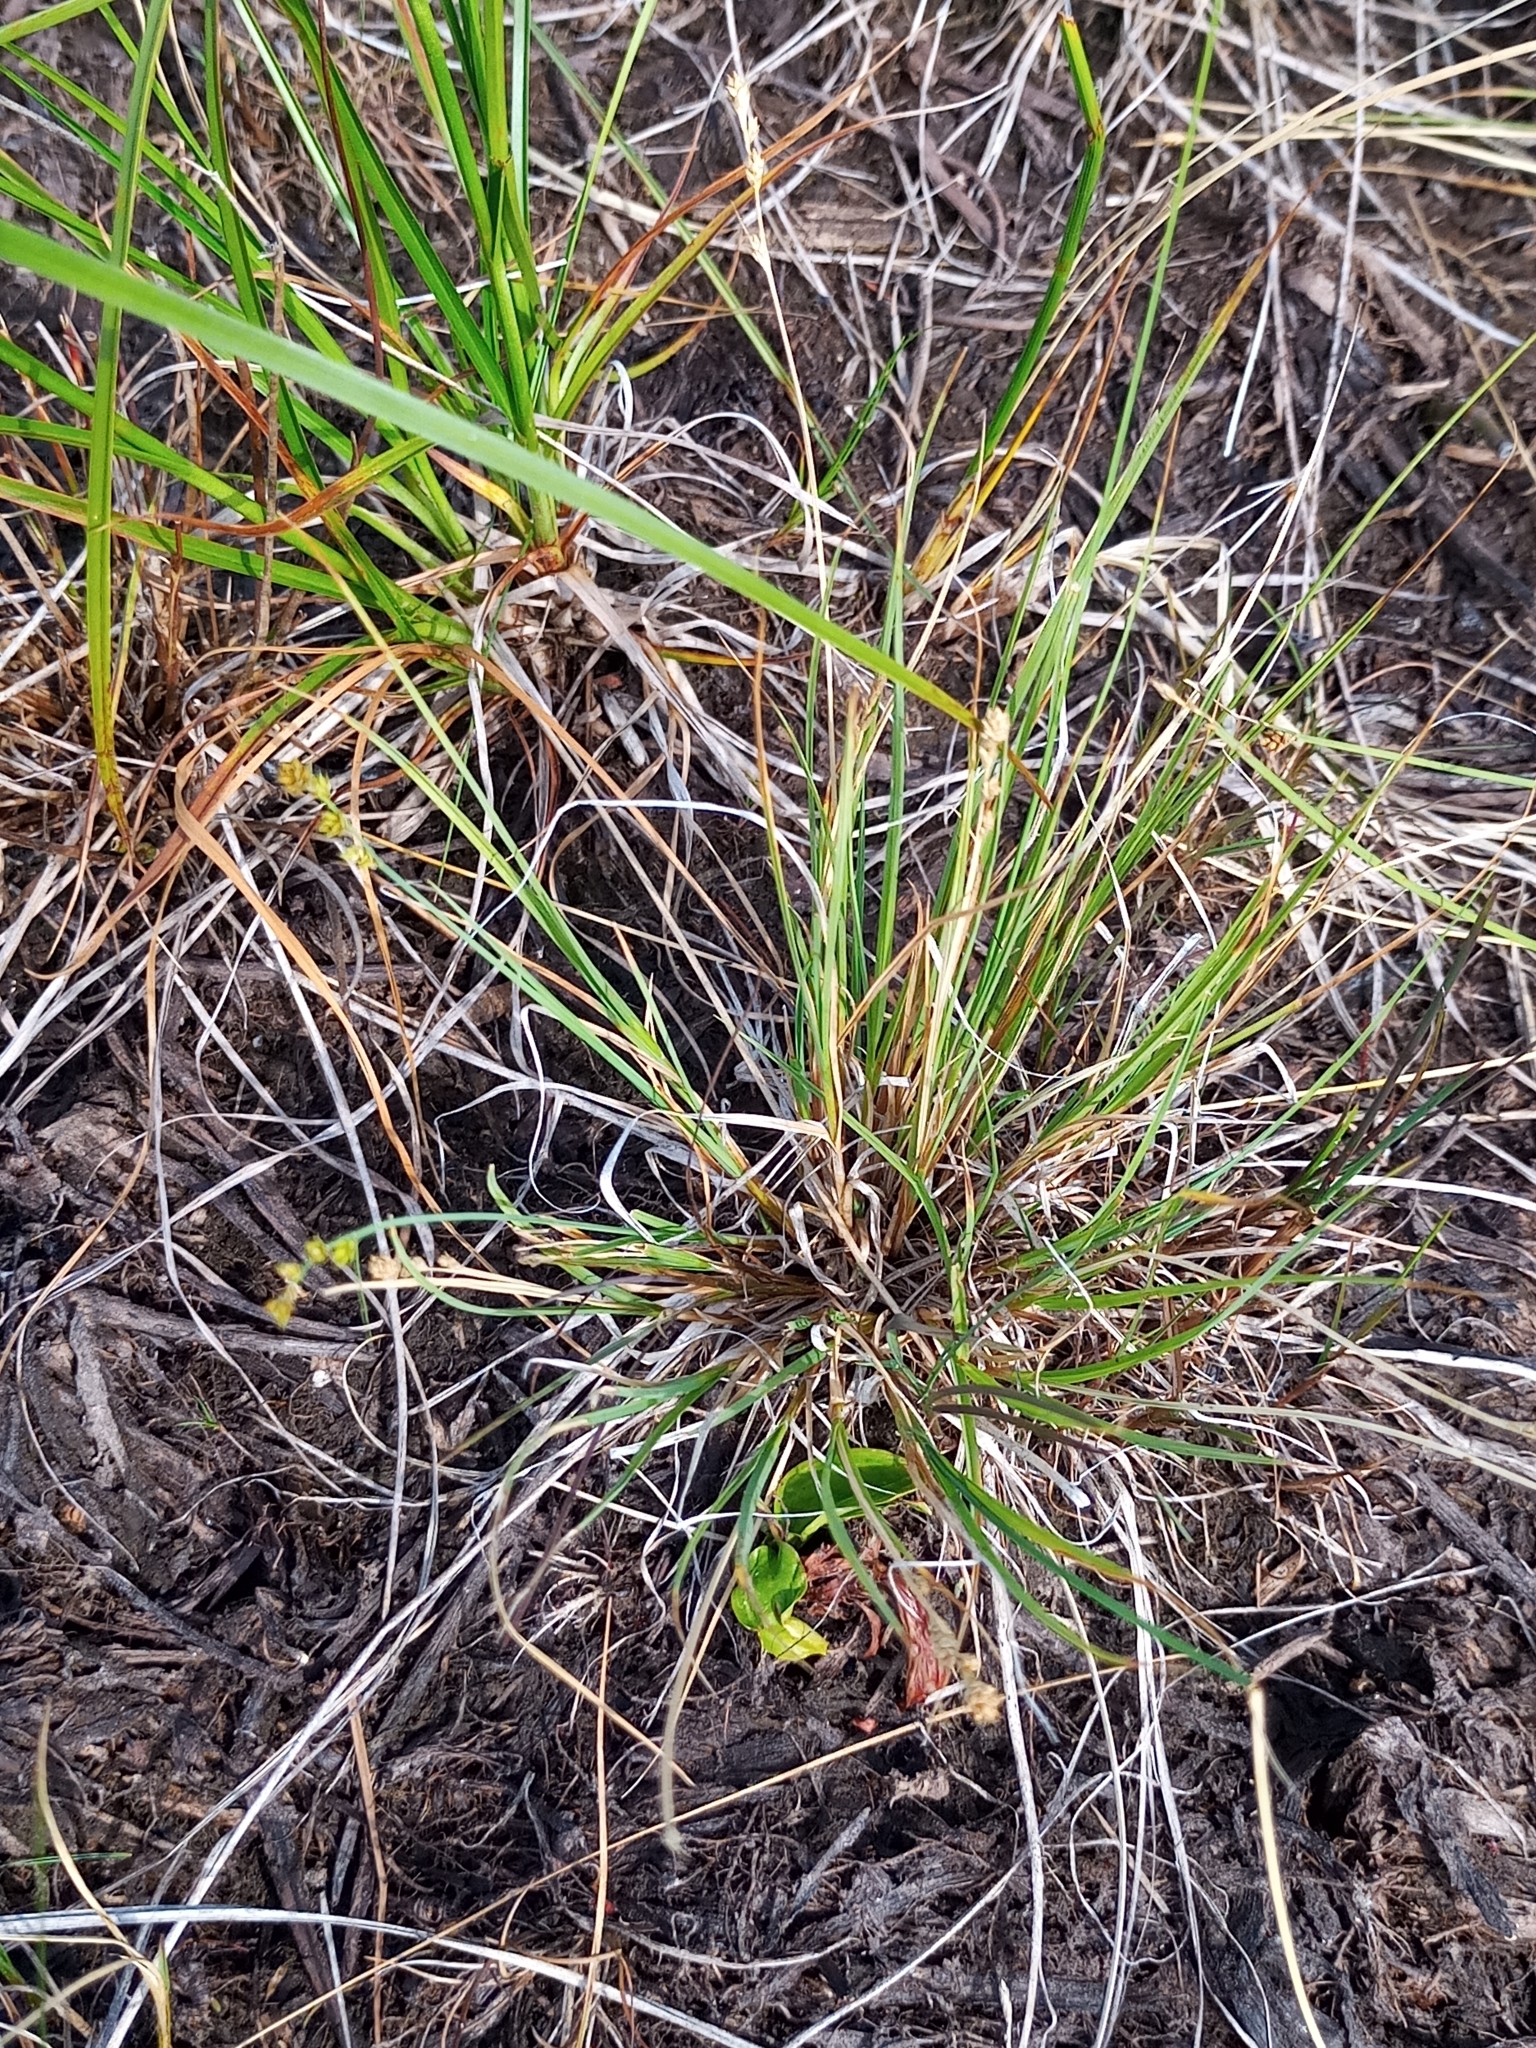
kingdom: Plantae
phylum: Tracheophyta
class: Liliopsida
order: Poales
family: Cyperaceae
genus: Carex
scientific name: Carex canescens
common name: White sedge
